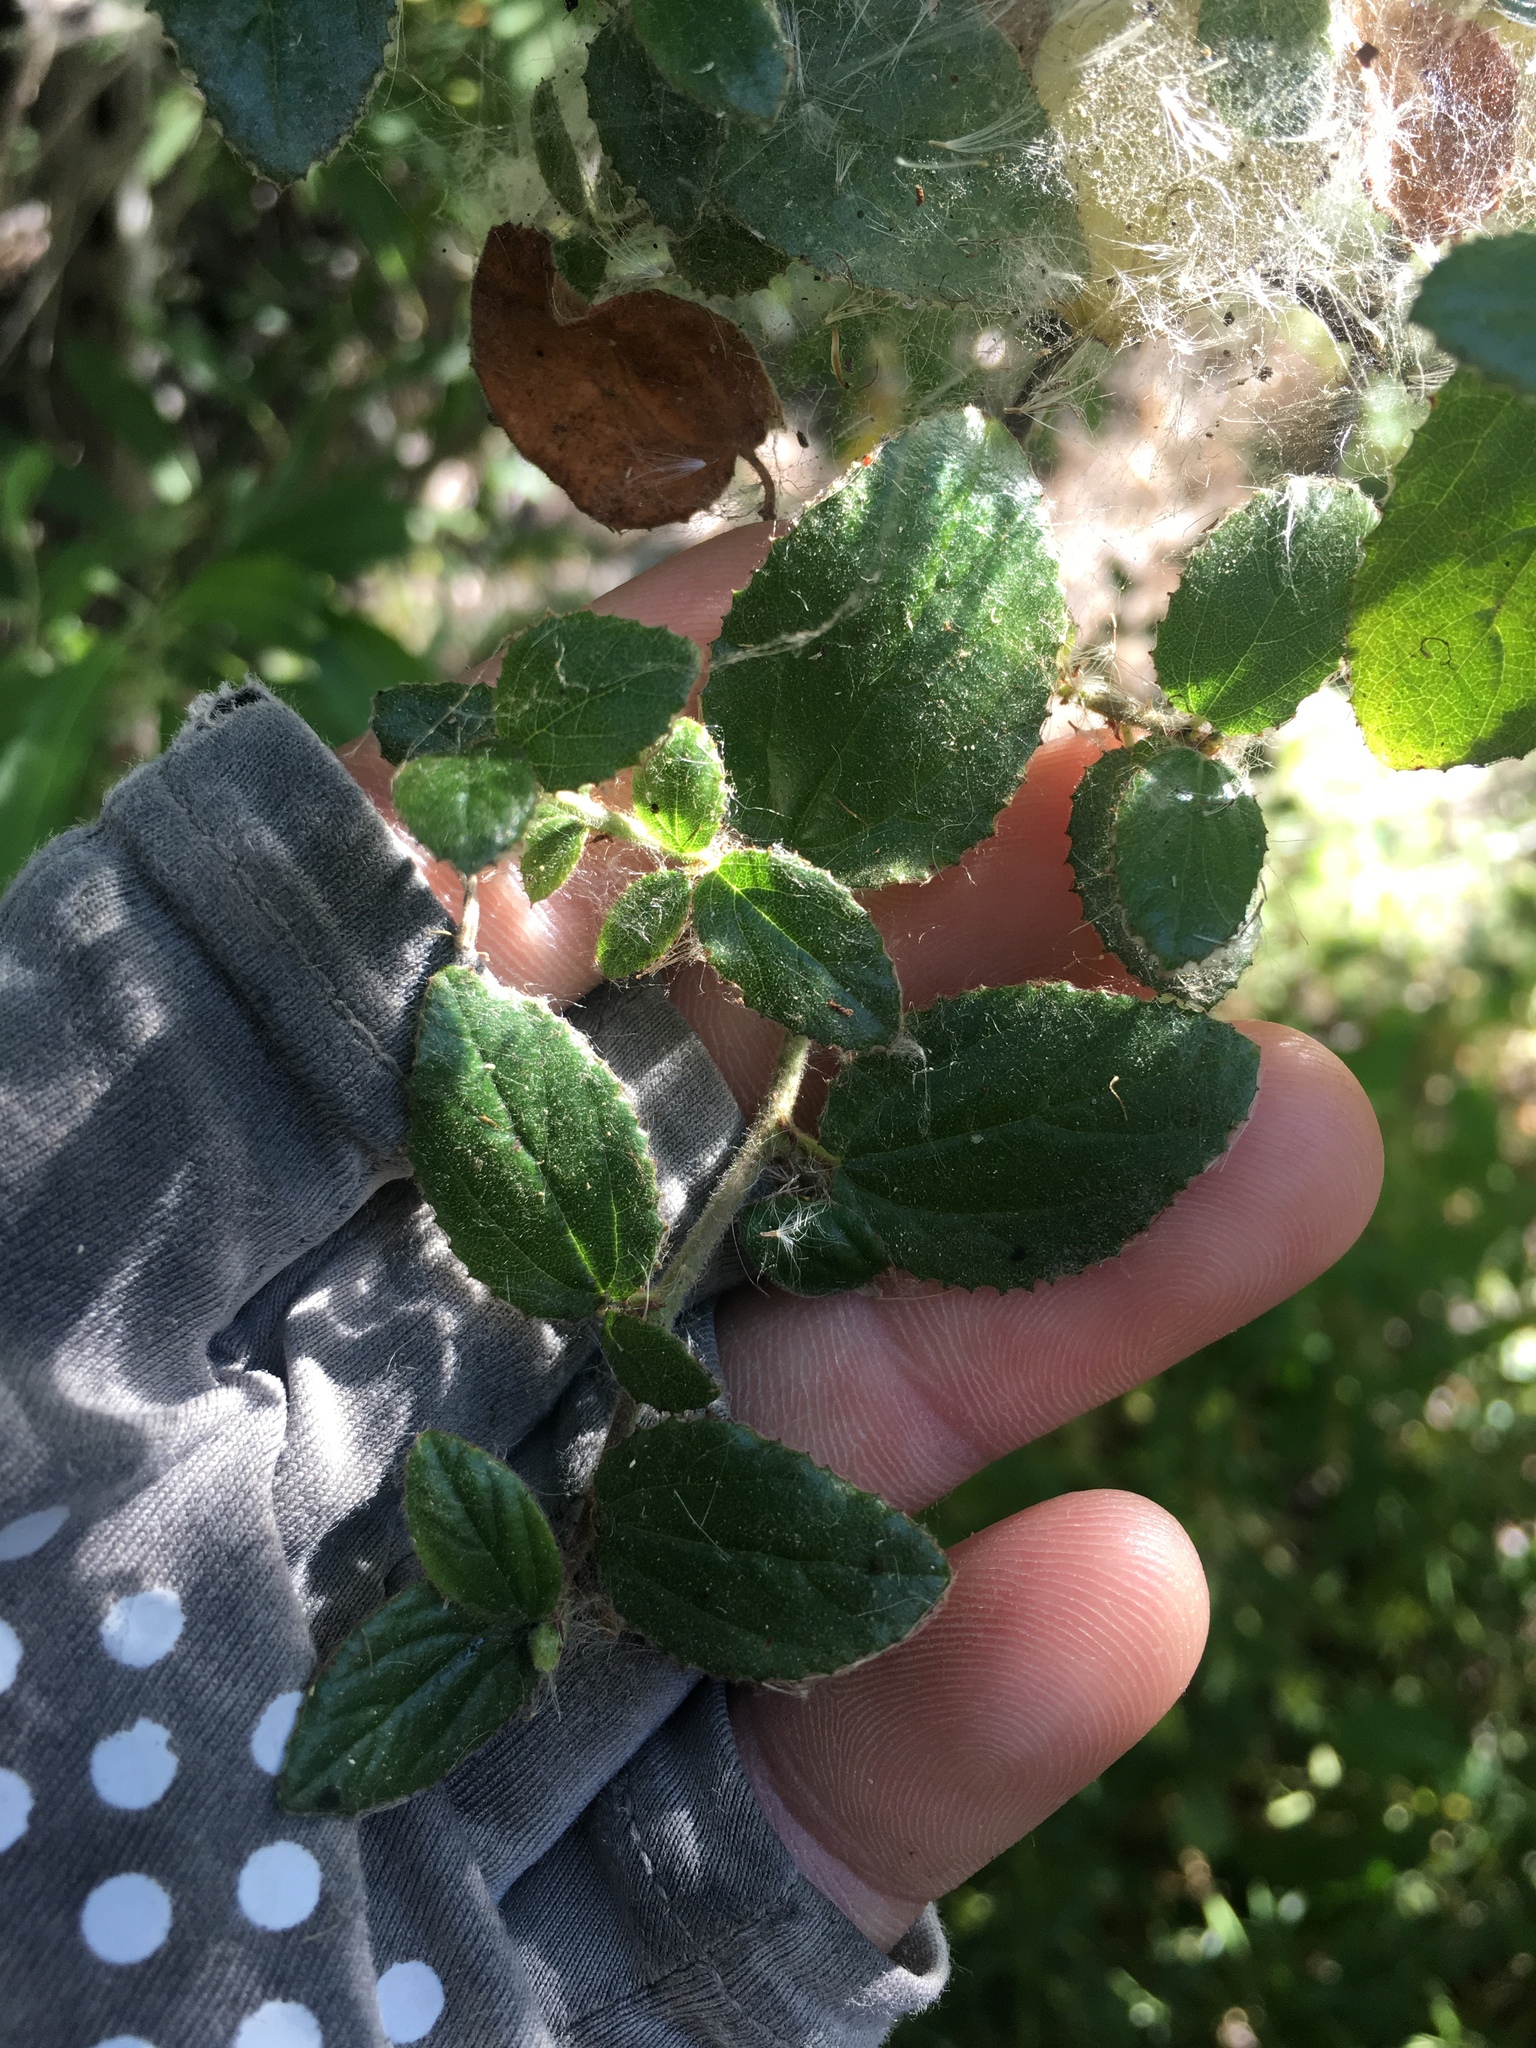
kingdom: Plantae
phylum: Tracheophyta
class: Magnoliopsida
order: Rosales
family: Rhamnaceae
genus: Ceanothus
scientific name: Ceanothus oliganthus
